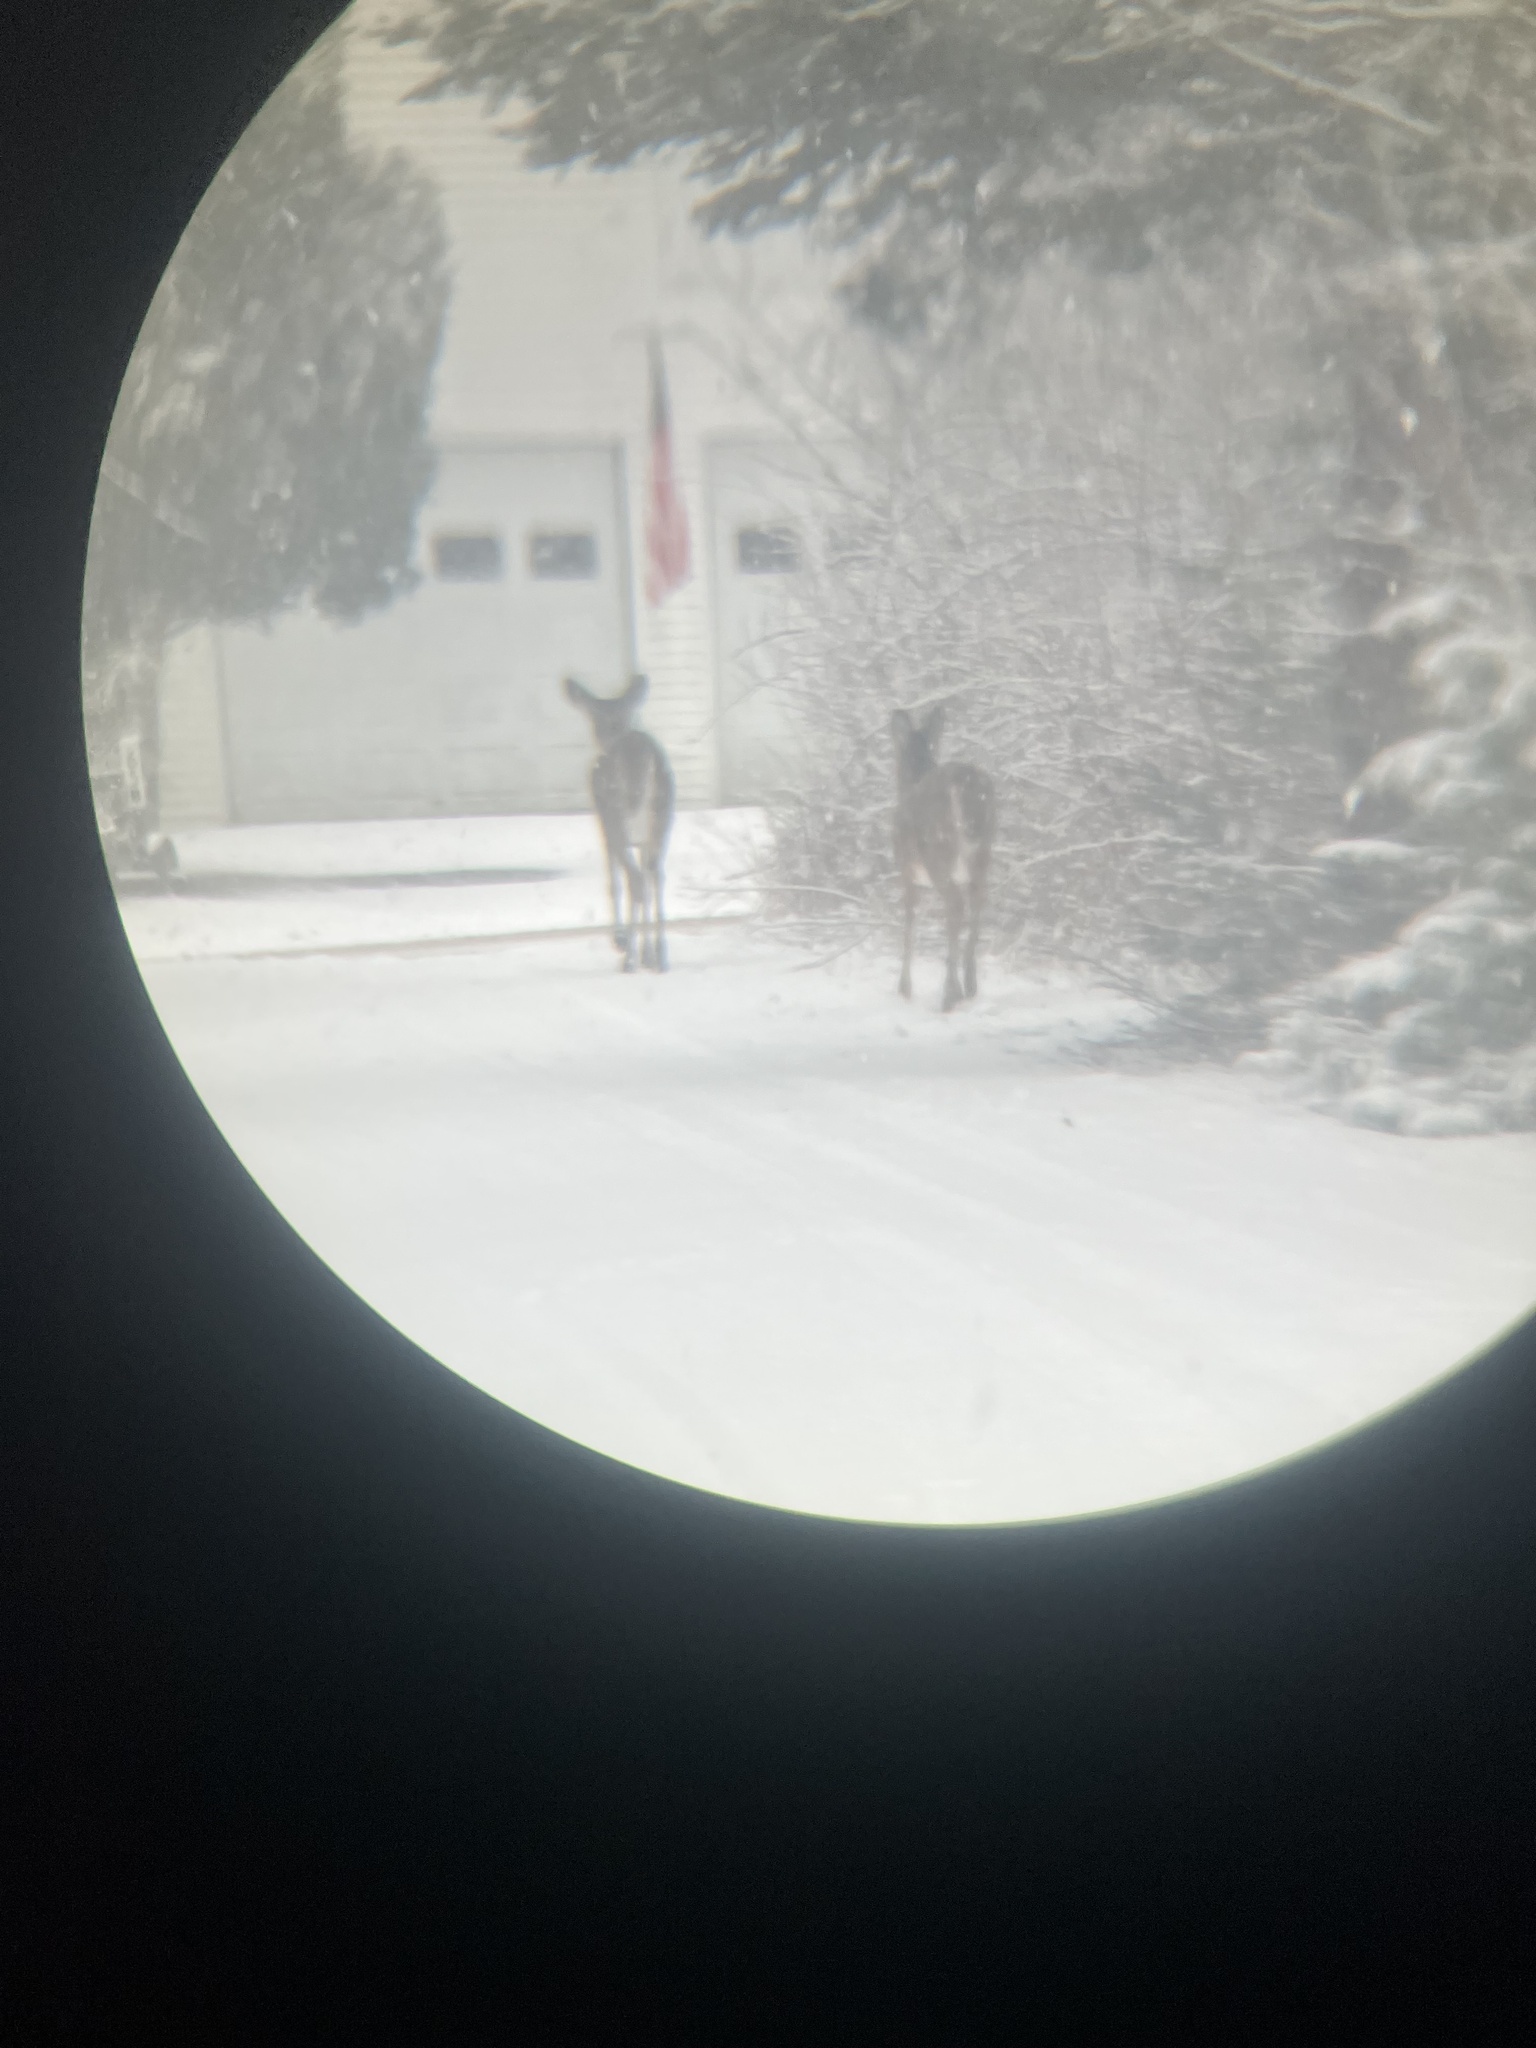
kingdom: Animalia
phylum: Chordata
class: Mammalia
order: Artiodactyla
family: Cervidae
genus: Odocoileus
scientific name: Odocoileus virginianus
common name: White-tailed deer
